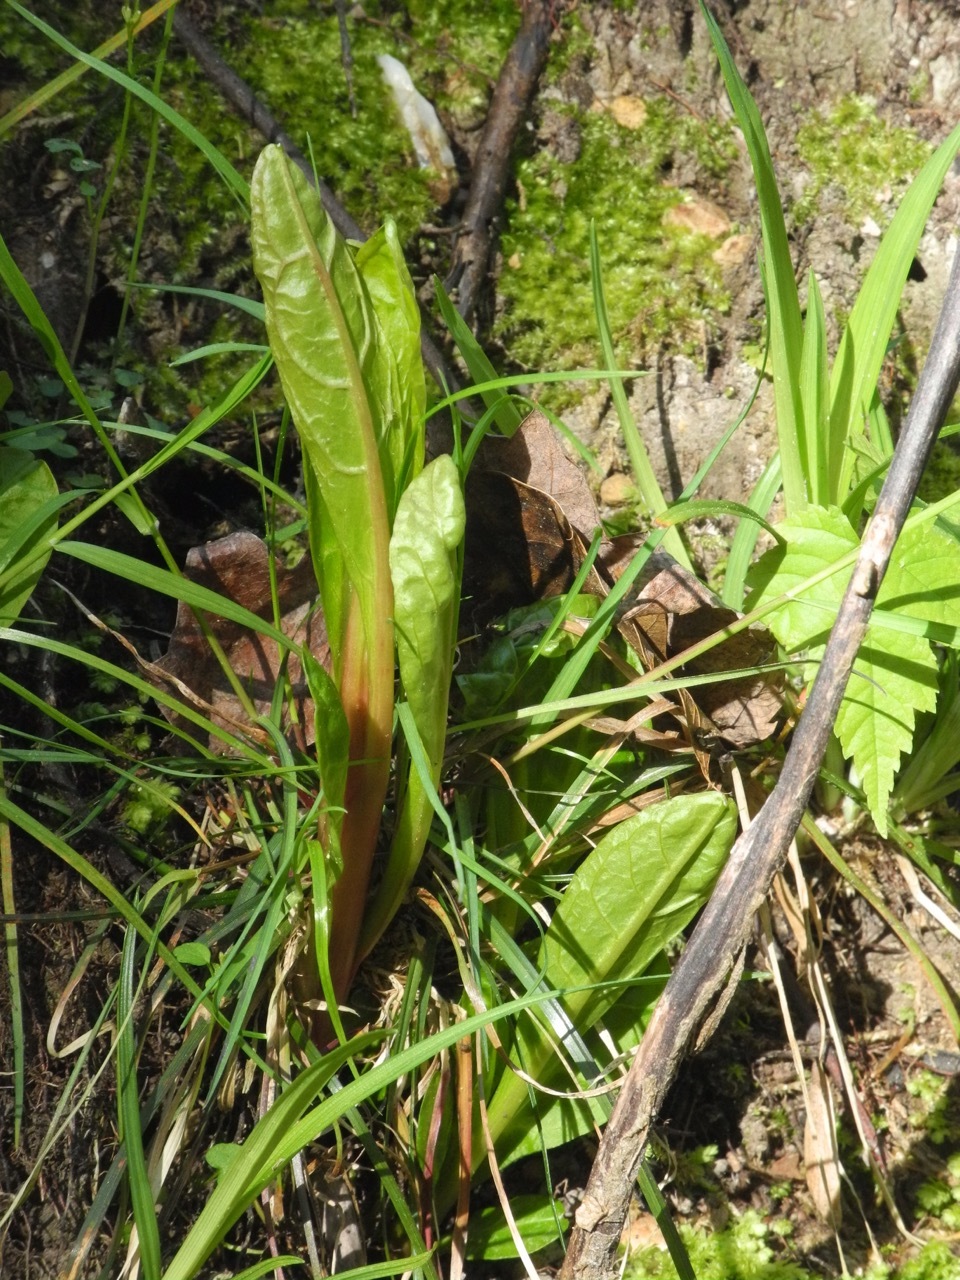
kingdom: Plantae
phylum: Tracheophyta
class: Magnoliopsida
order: Caryophyllales
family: Phytolaccaceae
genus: Phytolacca
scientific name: Phytolacca americana
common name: American pokeweed
